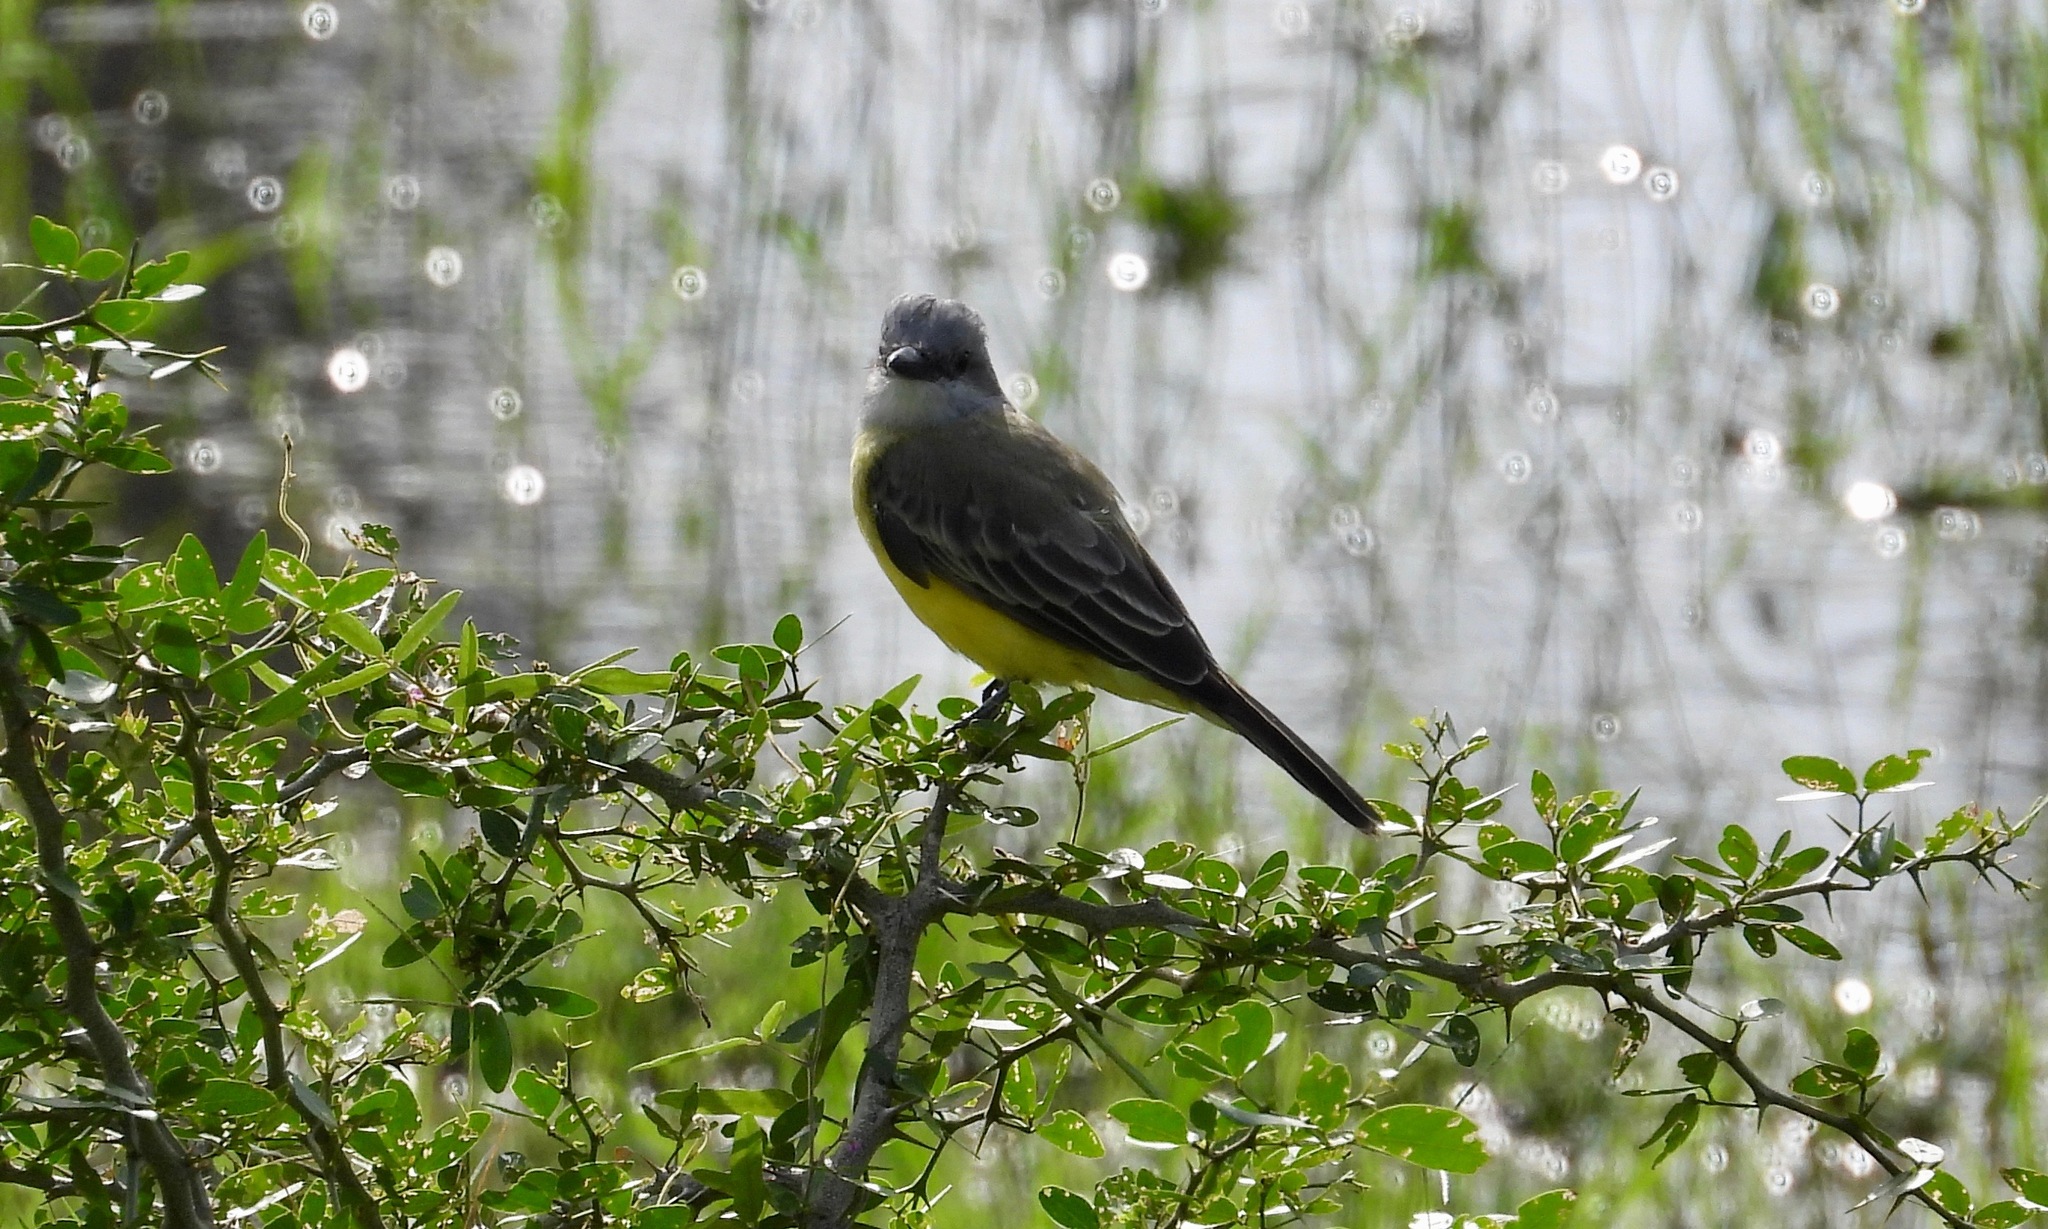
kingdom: Animalia
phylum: Chordata
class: Aves
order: Passeriformes
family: Tyrannidae
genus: Tyrannus
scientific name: Tyrannus melancholicus
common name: Tropical kingbird
